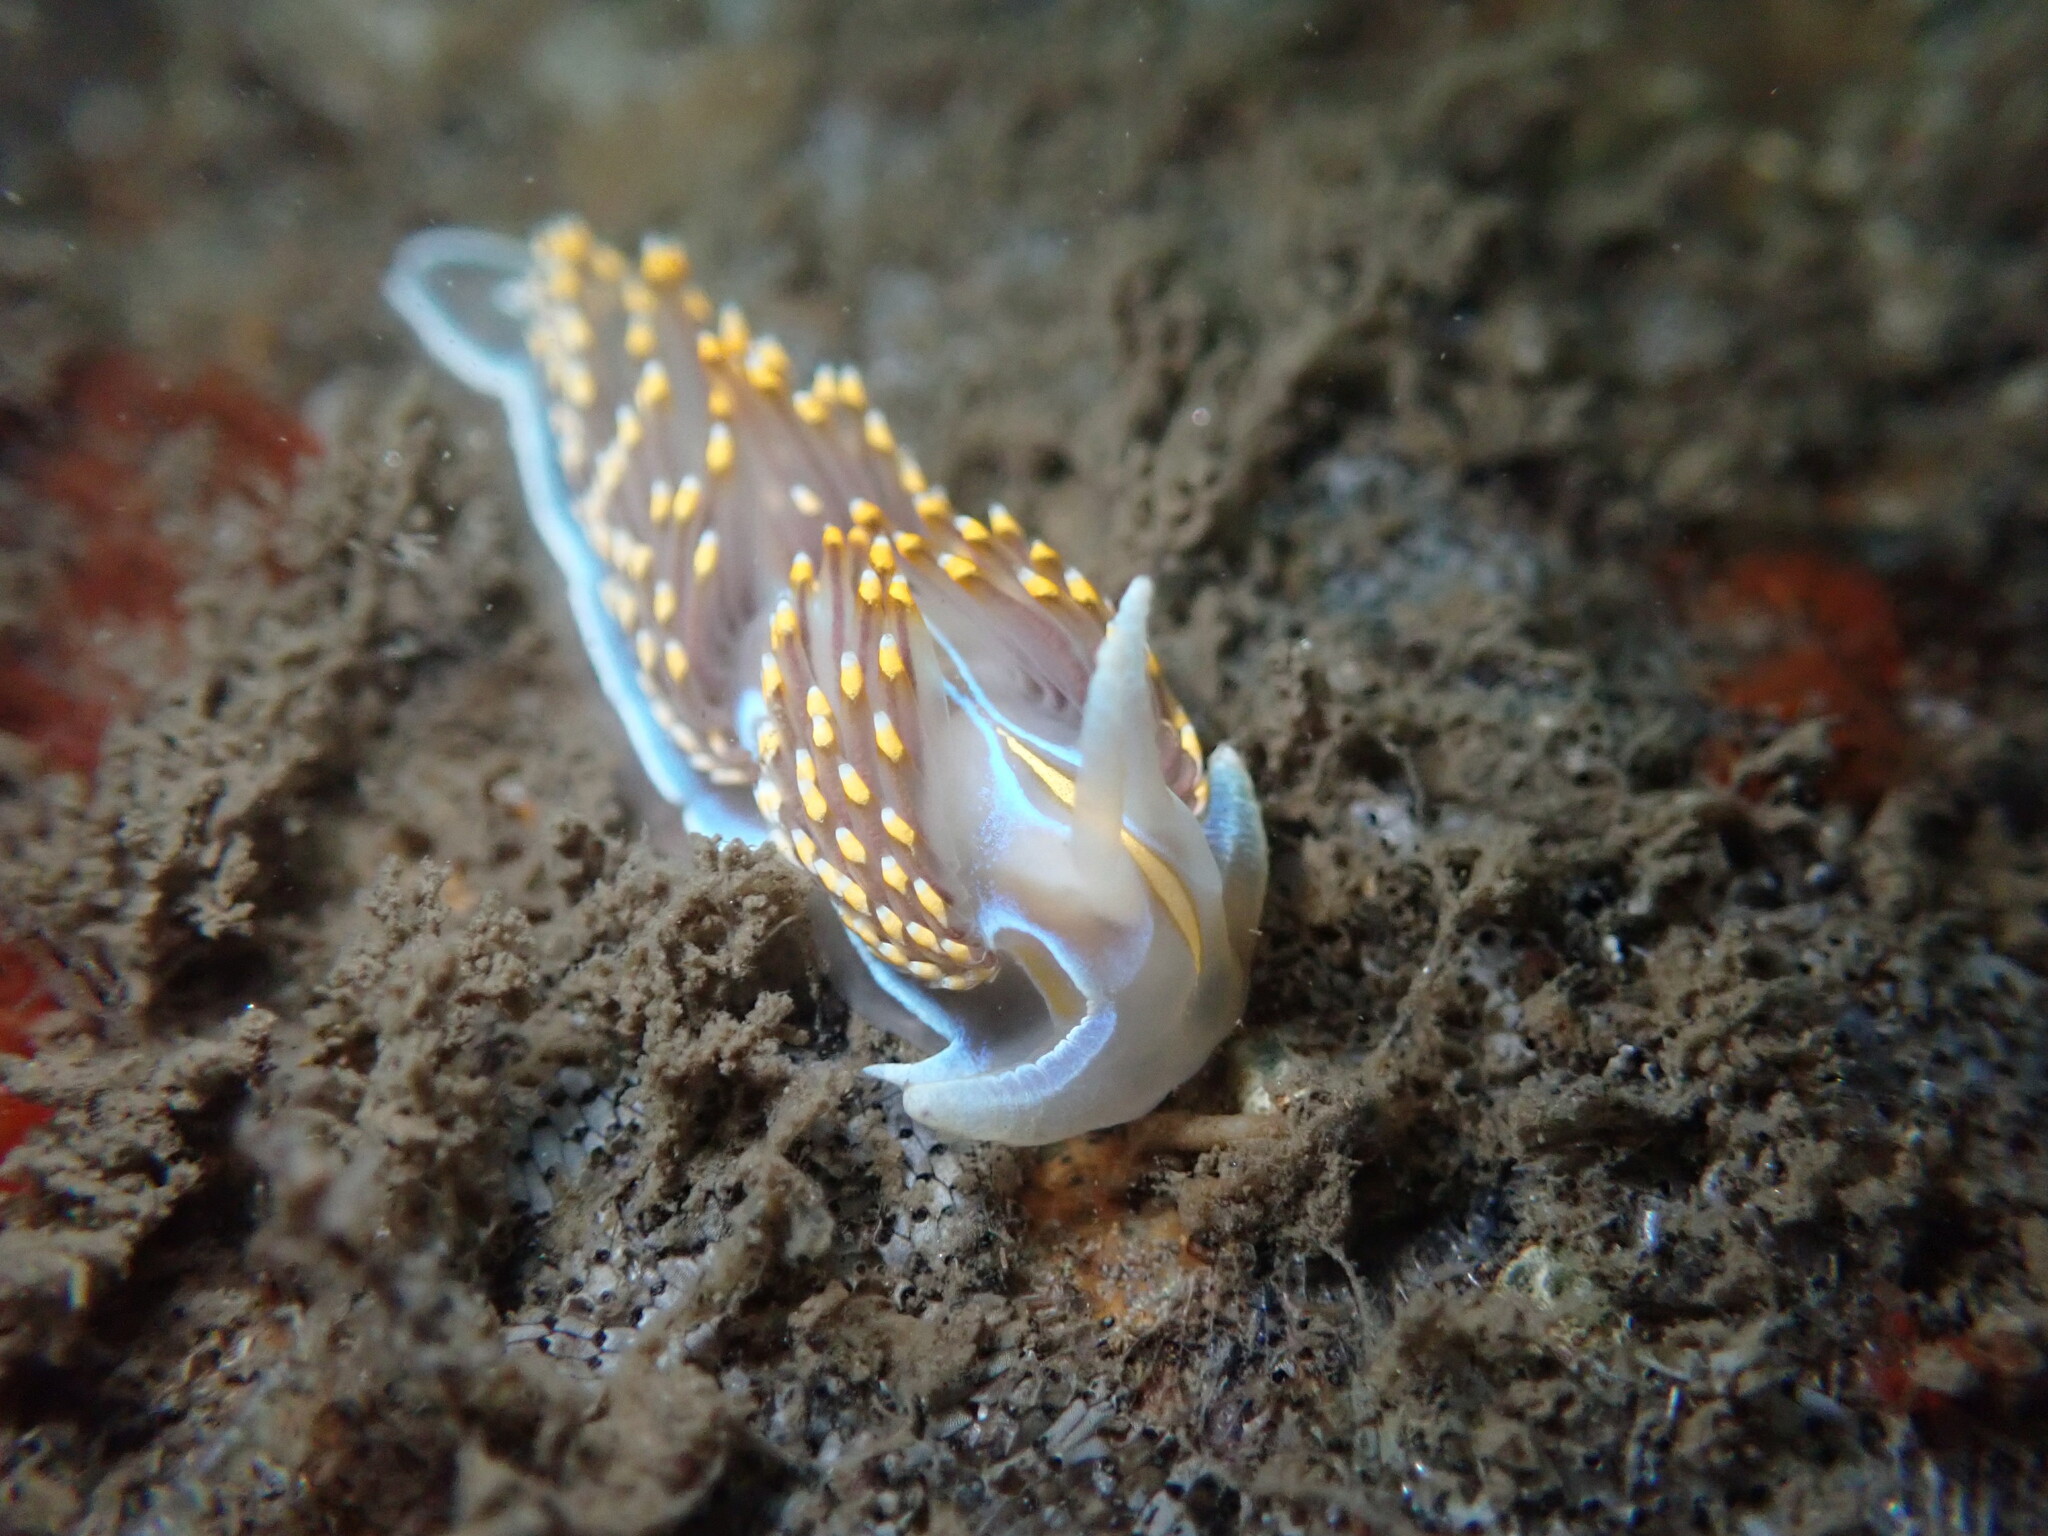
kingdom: Animalia
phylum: Mollusca
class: Gastropoda
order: Nudibranchia
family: Myrrhinidae
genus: Hermissenda
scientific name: Hermissenda opalescens
